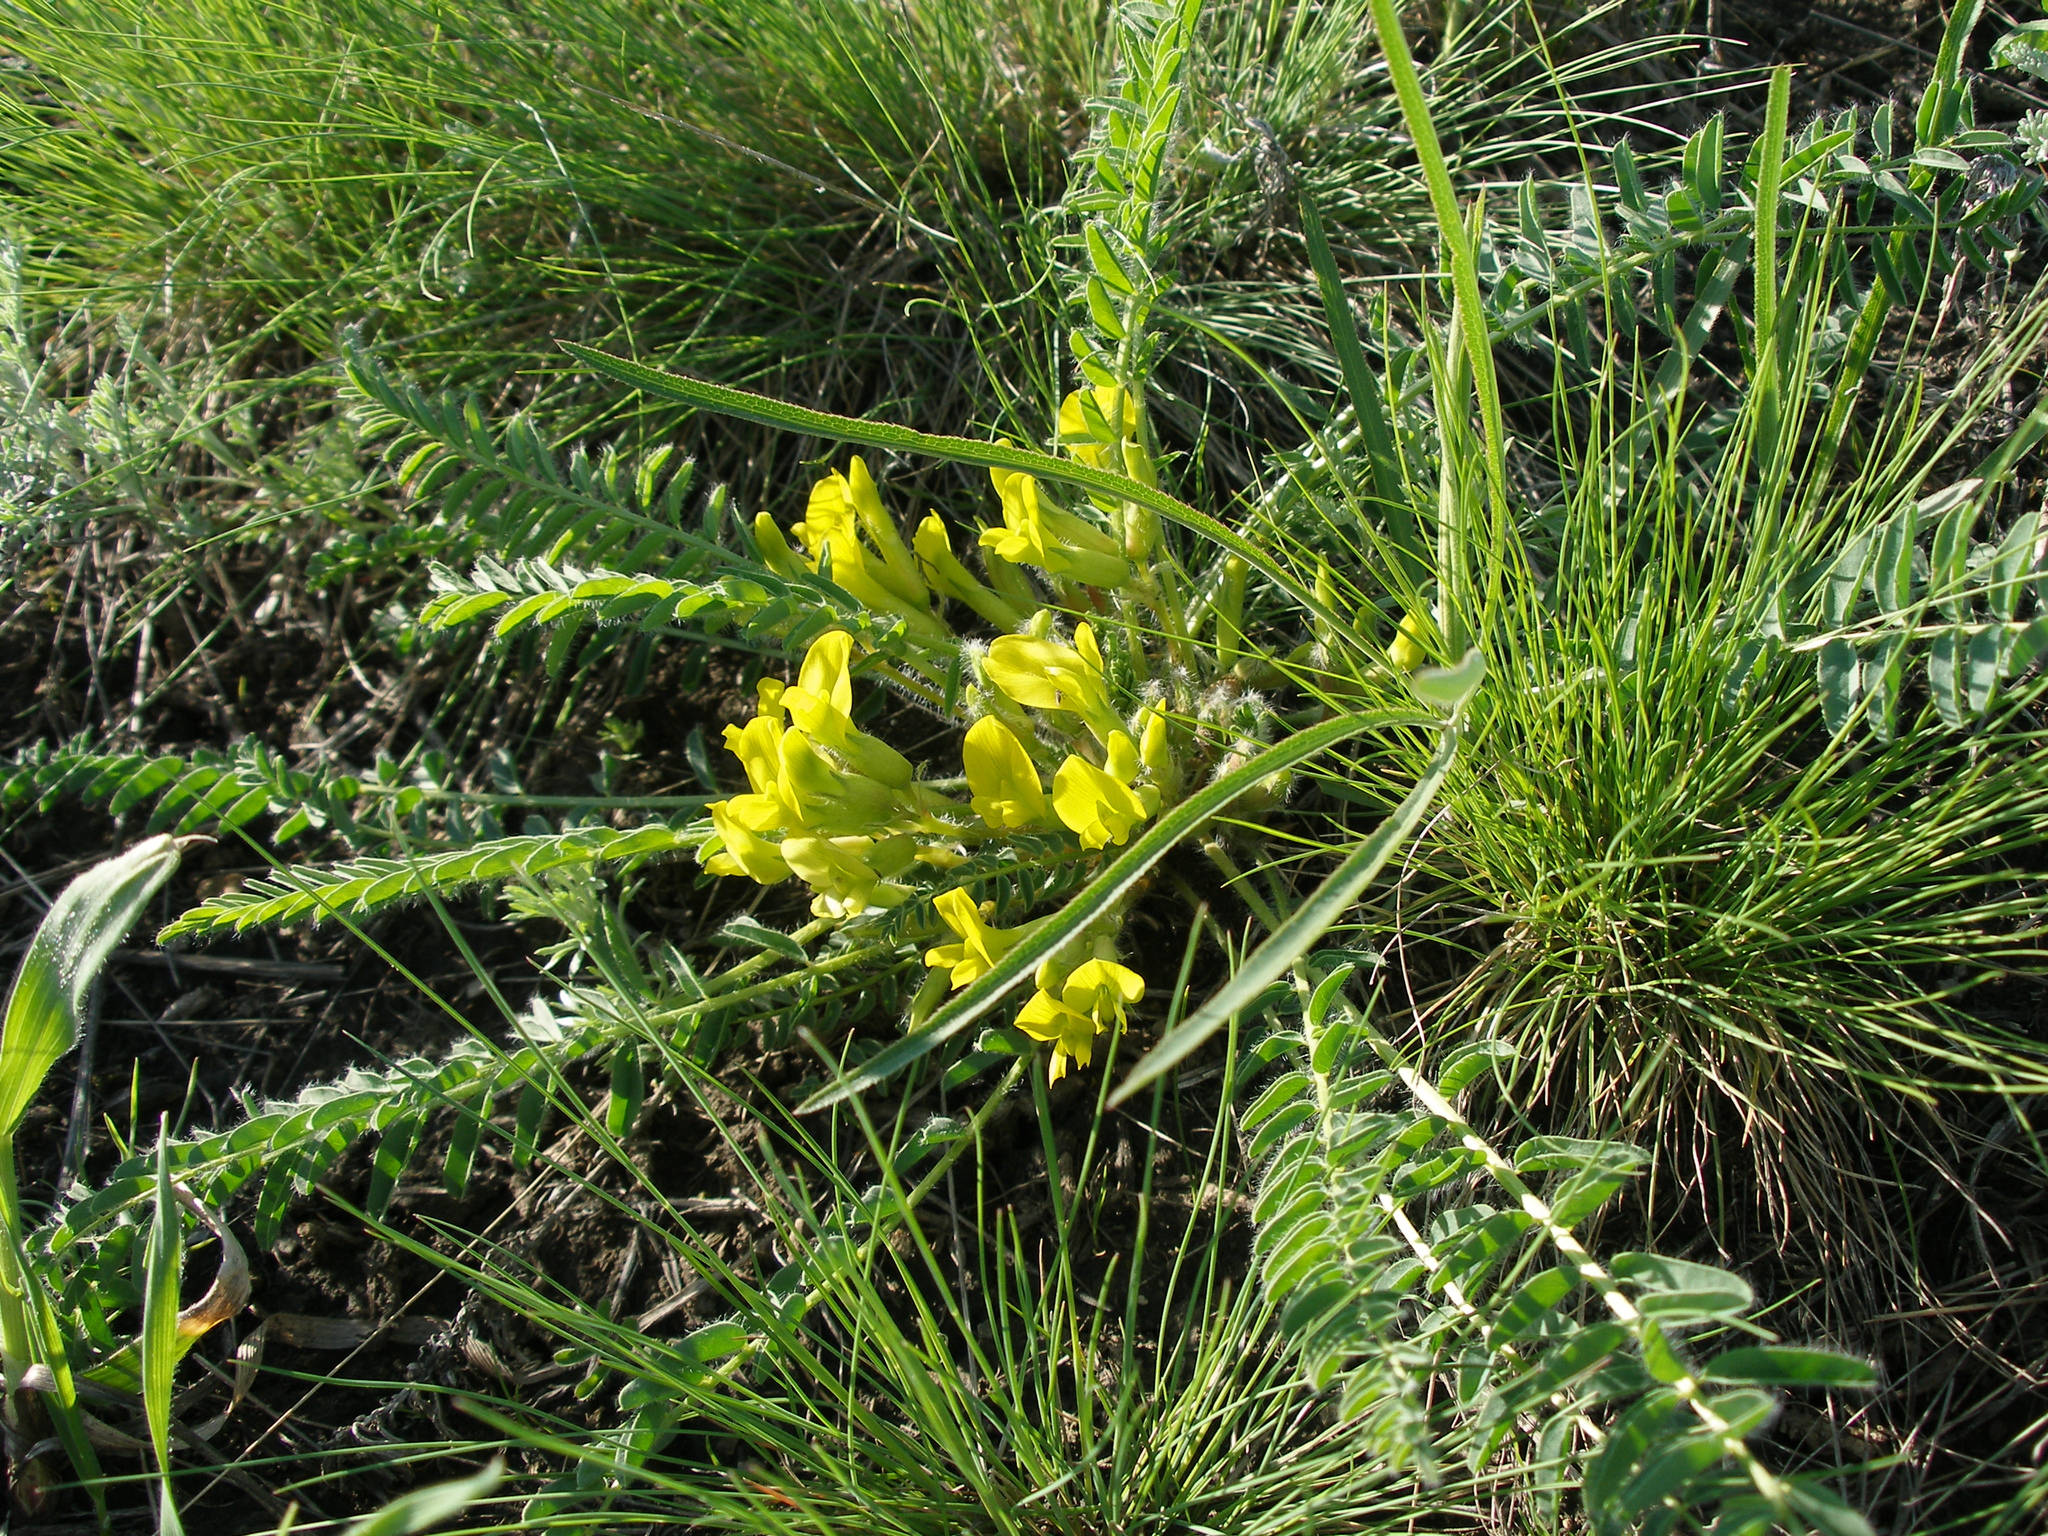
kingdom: Plantae
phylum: Tracheophyta
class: Magnoliopsida
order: Fabales
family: Fabaceae
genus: Astragalus
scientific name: Astragalus wolgensis
